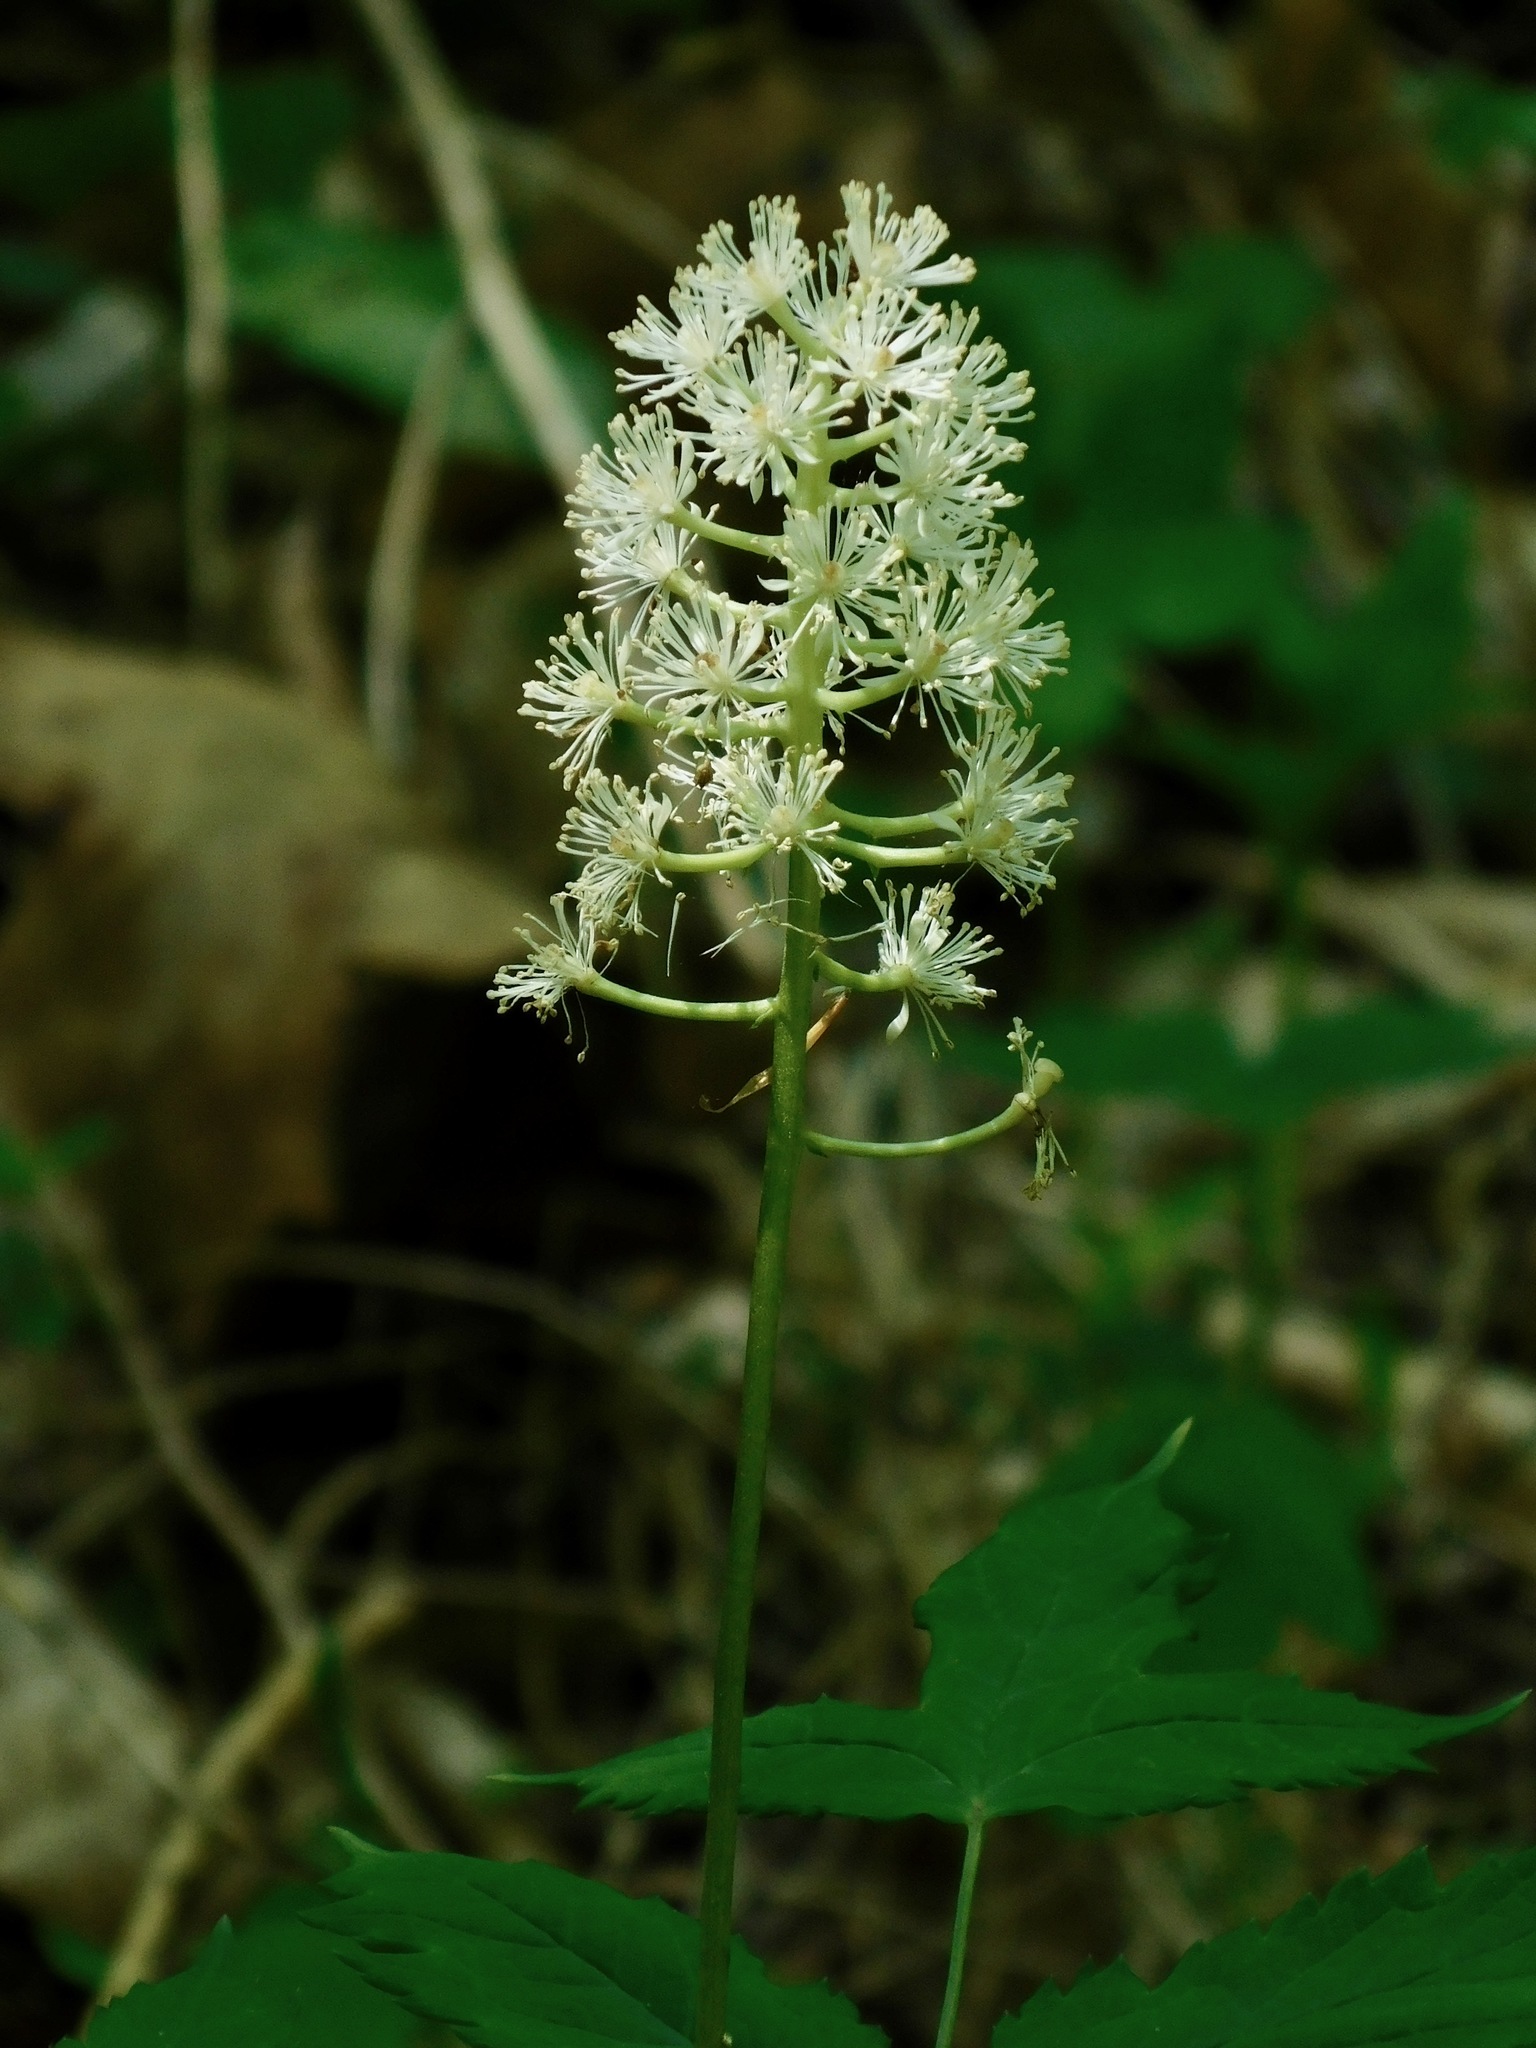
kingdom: Plantae
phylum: Tracheophyta
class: Magnoliopsida
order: Ranunculales
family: Ranunculaceae
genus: Actaea
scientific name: Actaea pachypoda
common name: Doll's-eyes
